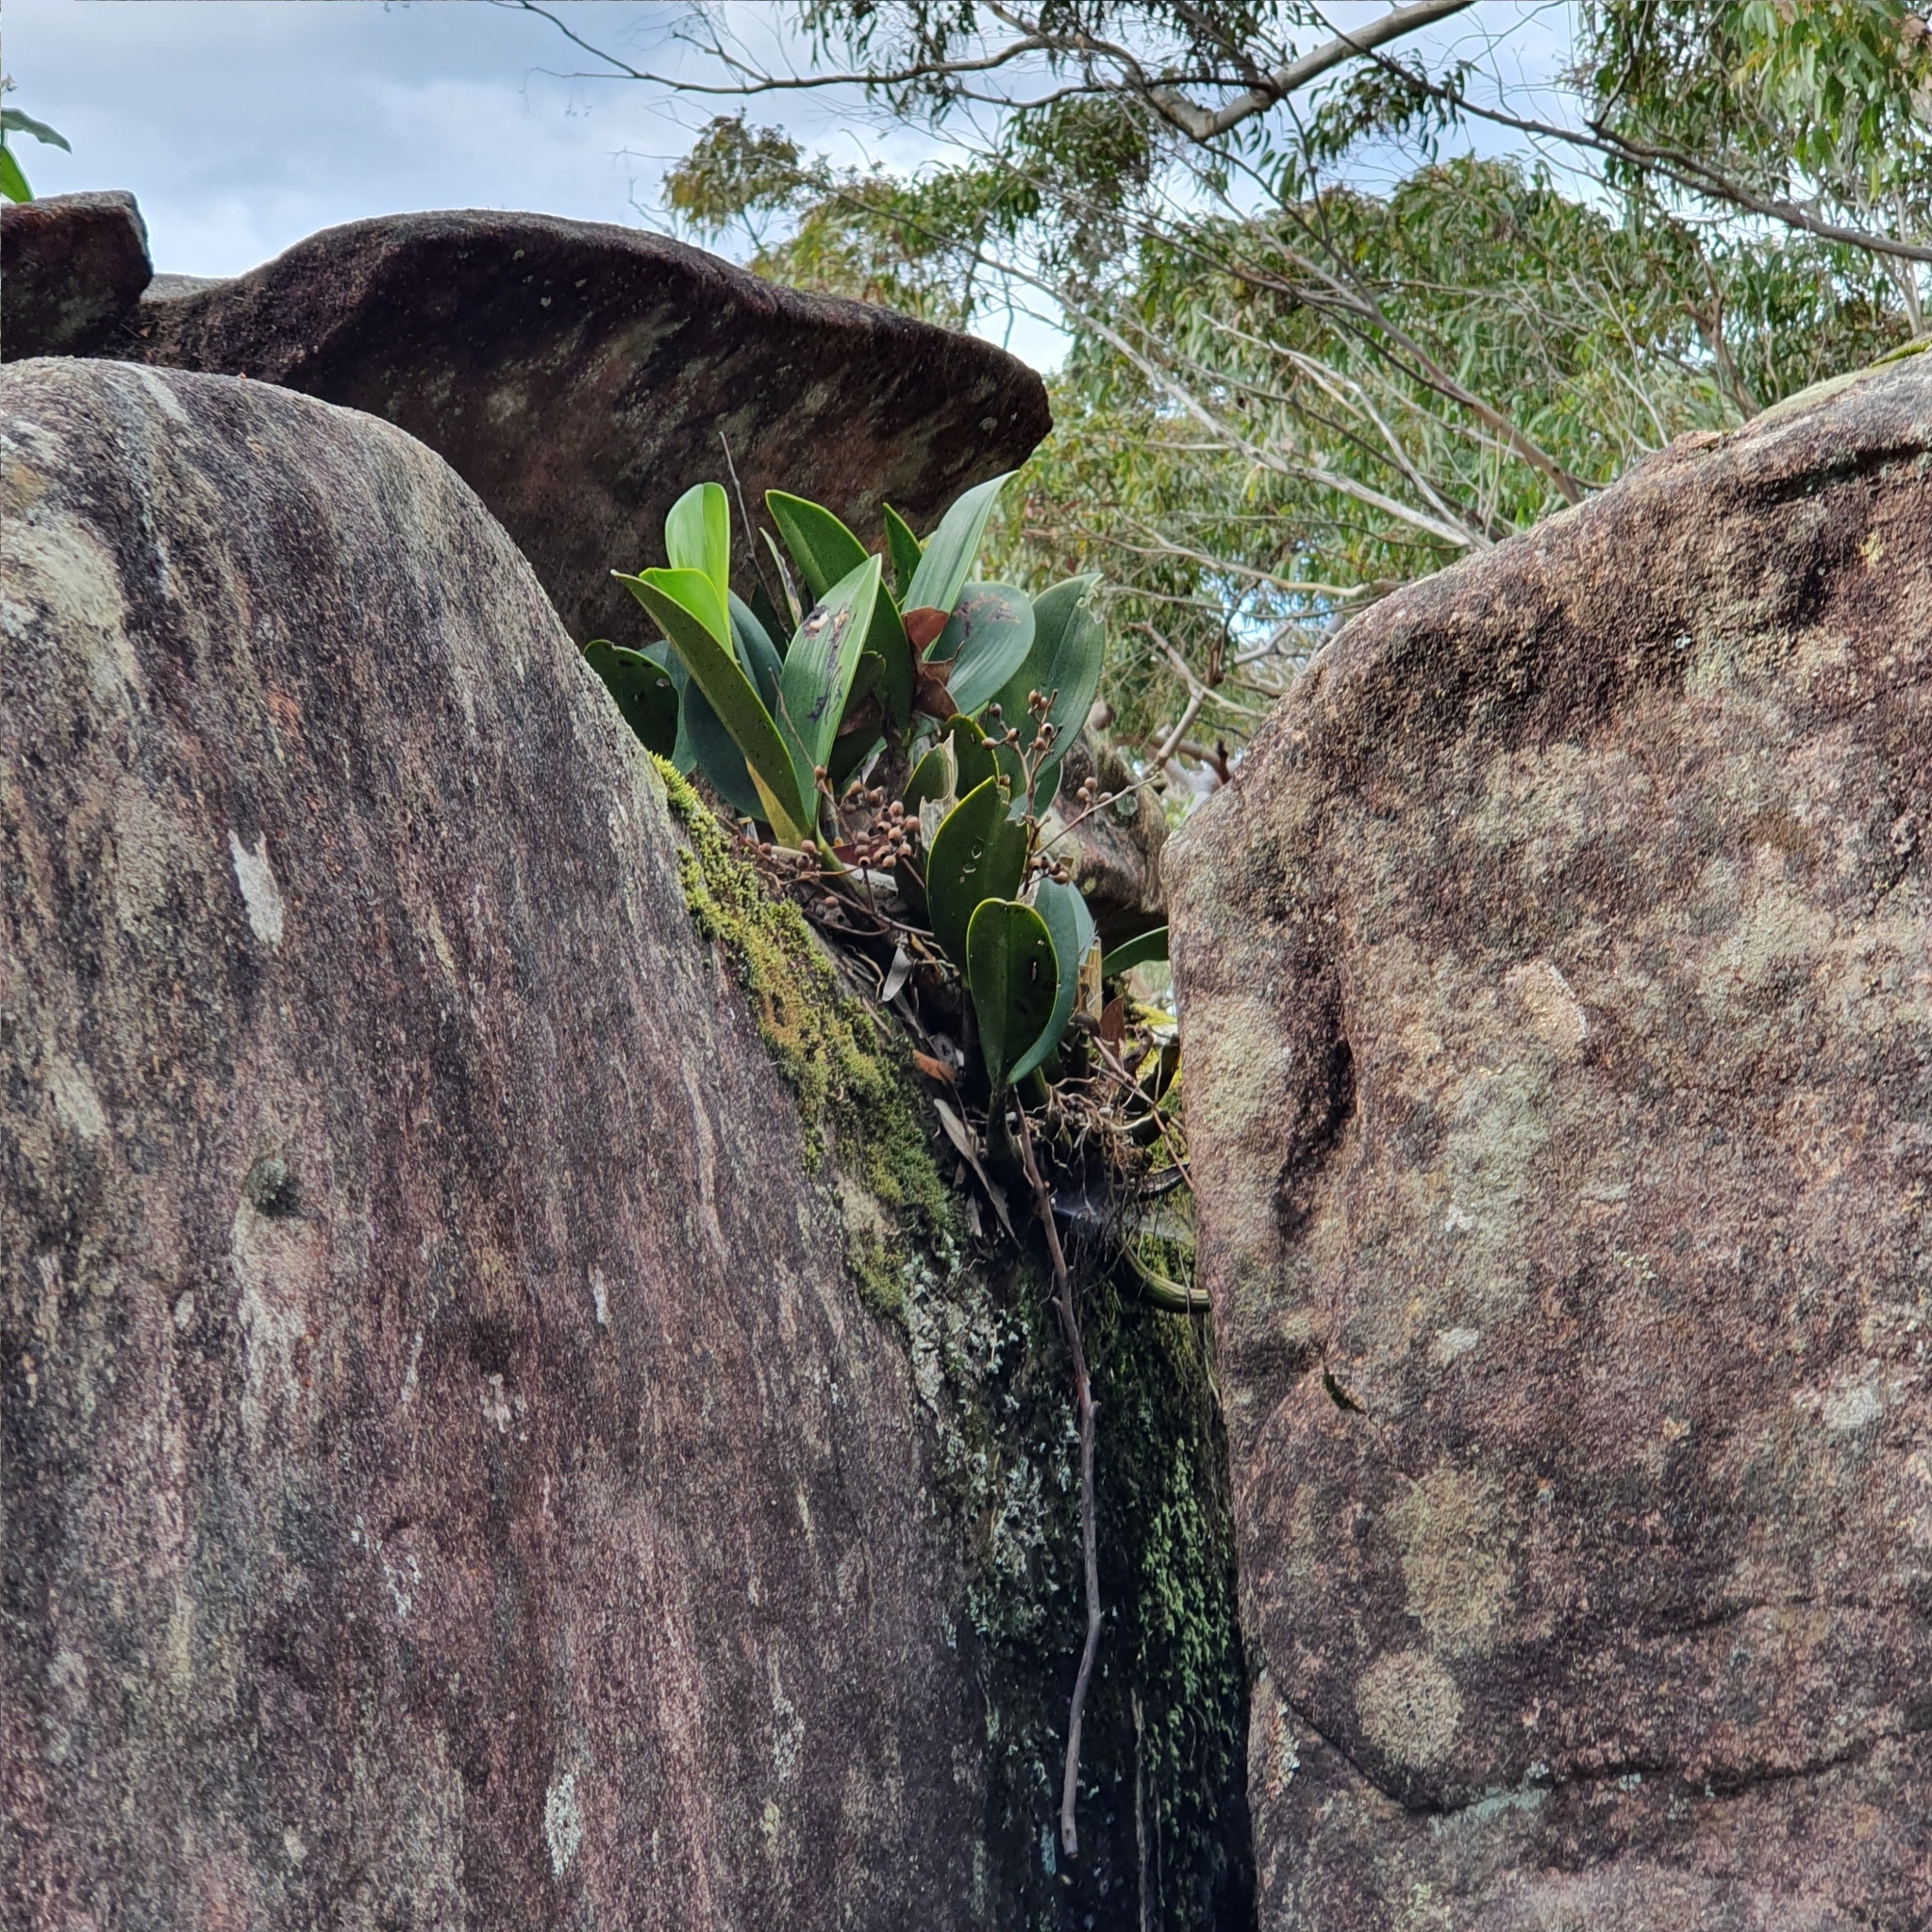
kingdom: Plantae
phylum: Tracheophyta
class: Liliopsida
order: Asparagales
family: Orchidaceae
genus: Dendrobium
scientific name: Dendrobium speciosum
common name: Rock-lily
